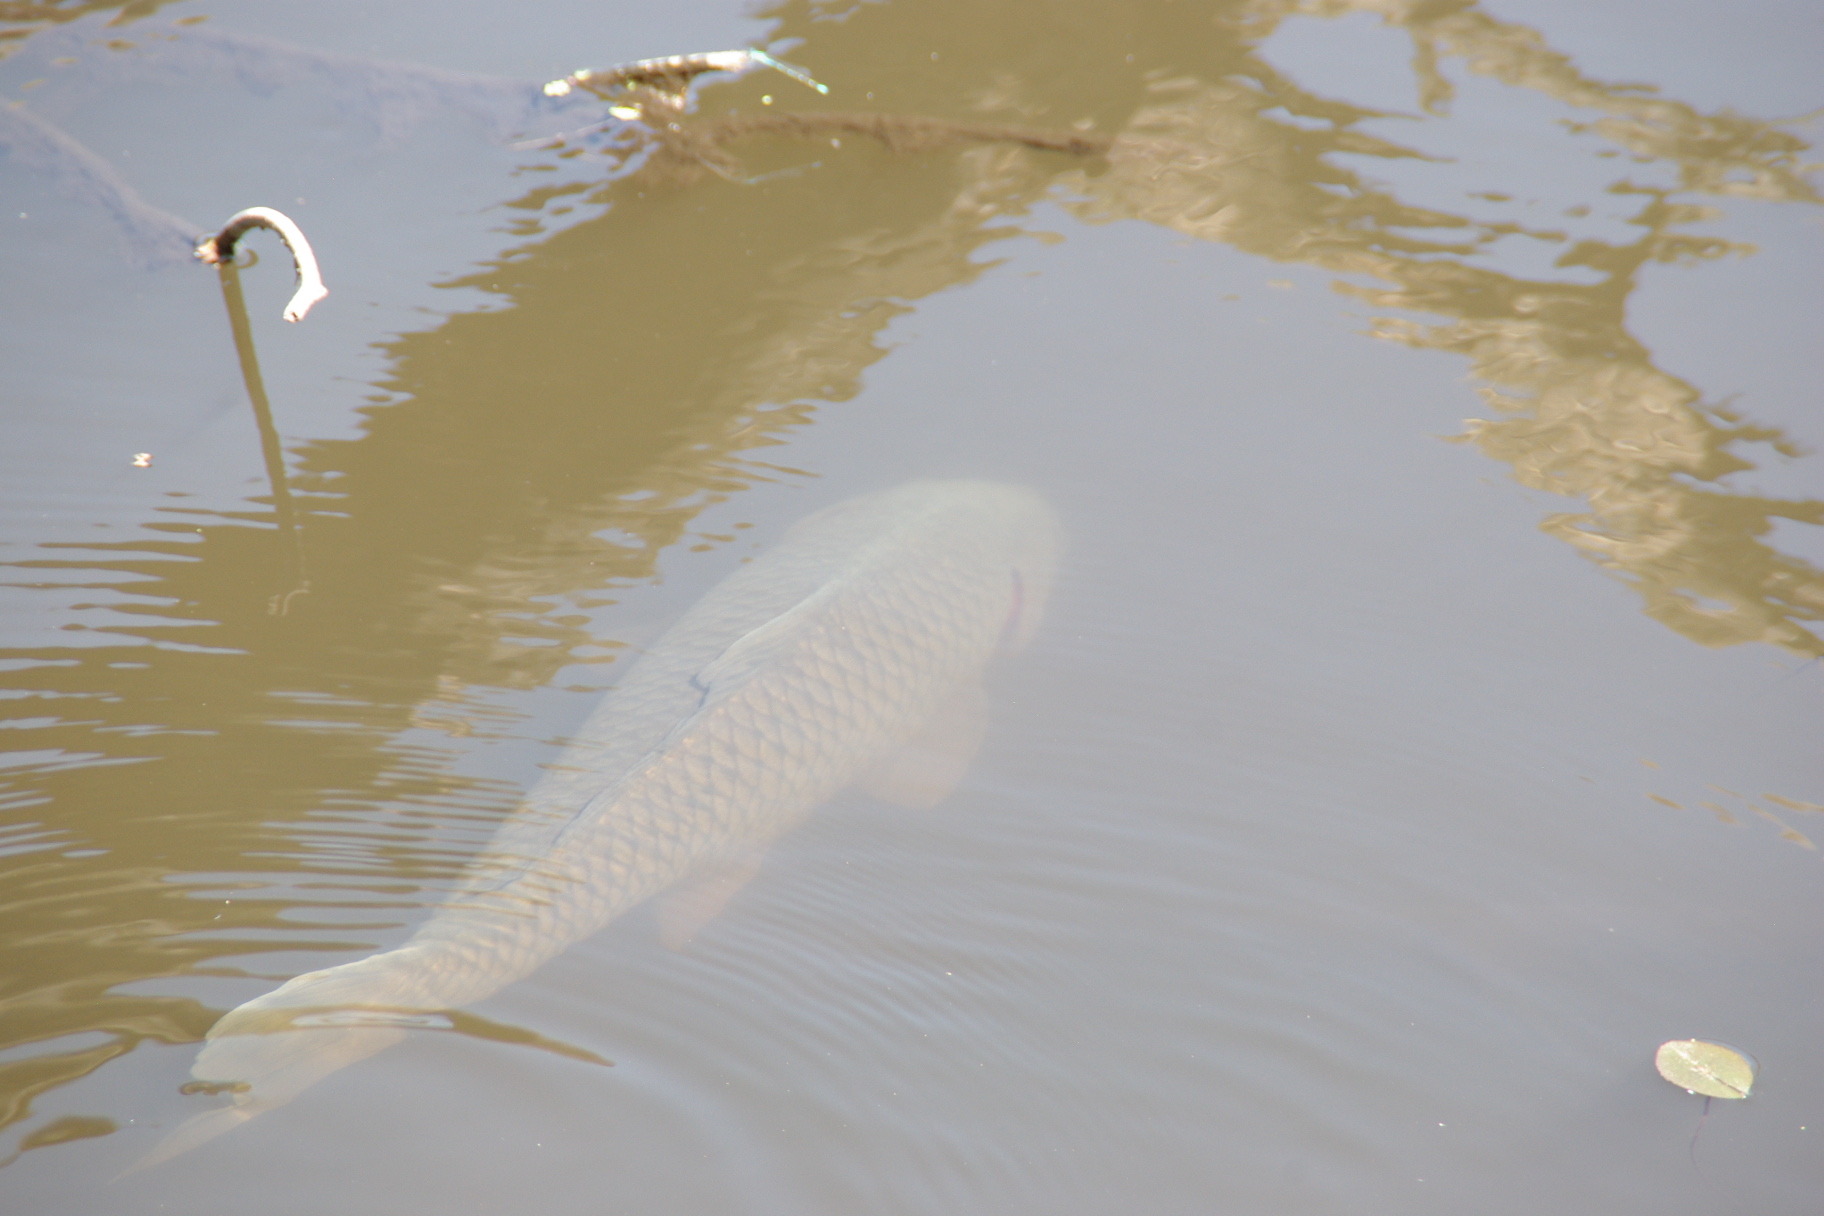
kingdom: Animalia
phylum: Chordata
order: Cypriniformes
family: Cyprinidae
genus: Cyprinus
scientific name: Cyprinus carpio
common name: Common carp
